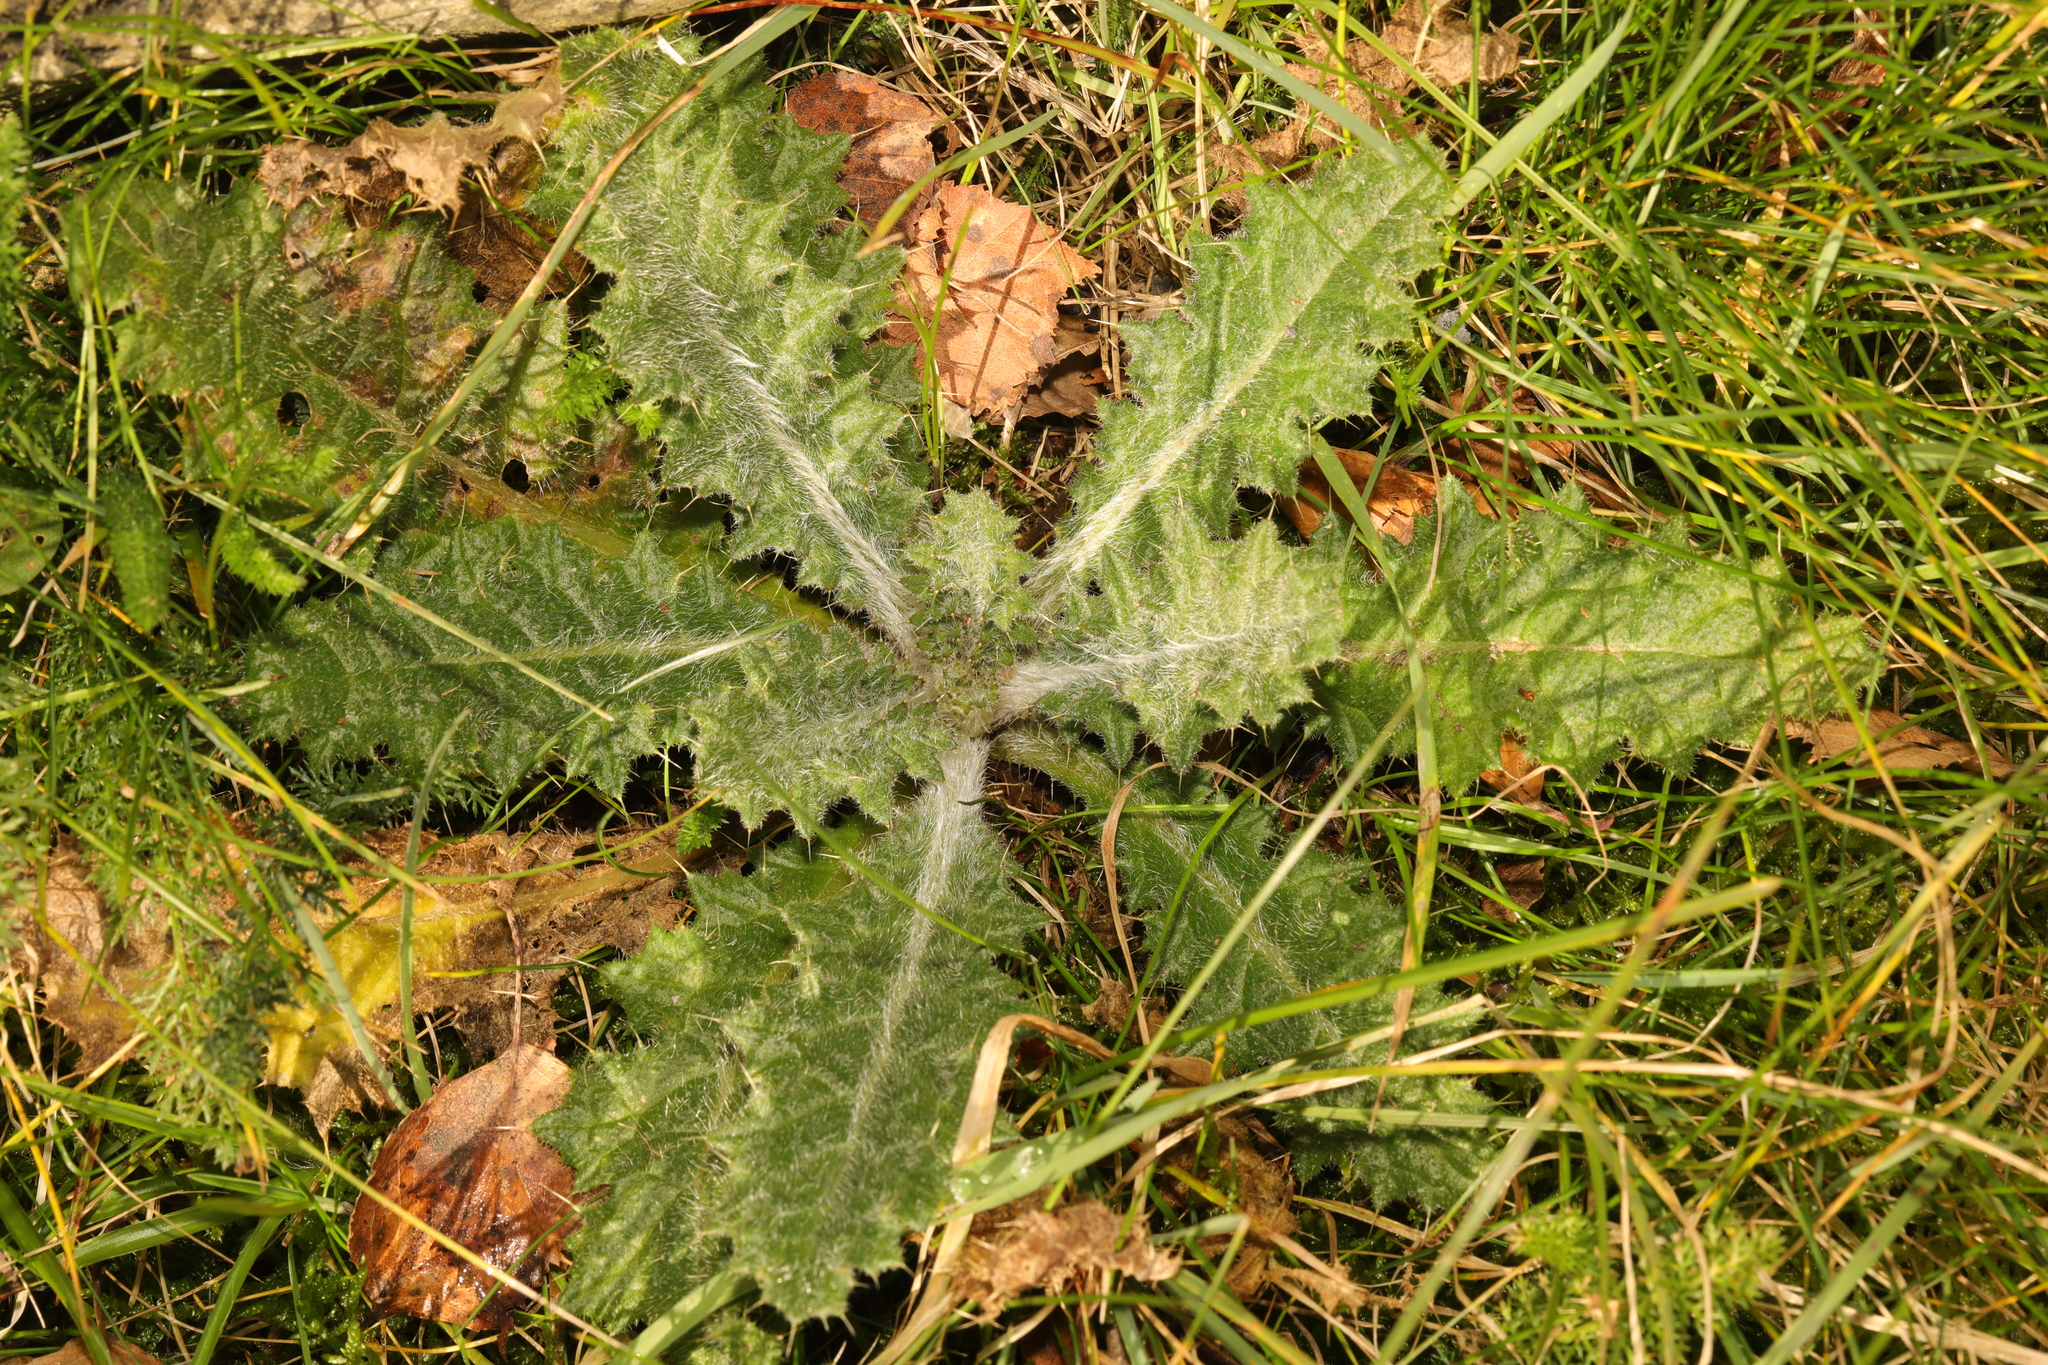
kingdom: Plantae
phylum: Tracheophyta
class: Magnoliopsida
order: Asterales
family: Asteraceae
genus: Cirsium
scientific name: Cirsium vulgare
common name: Bull thistle
